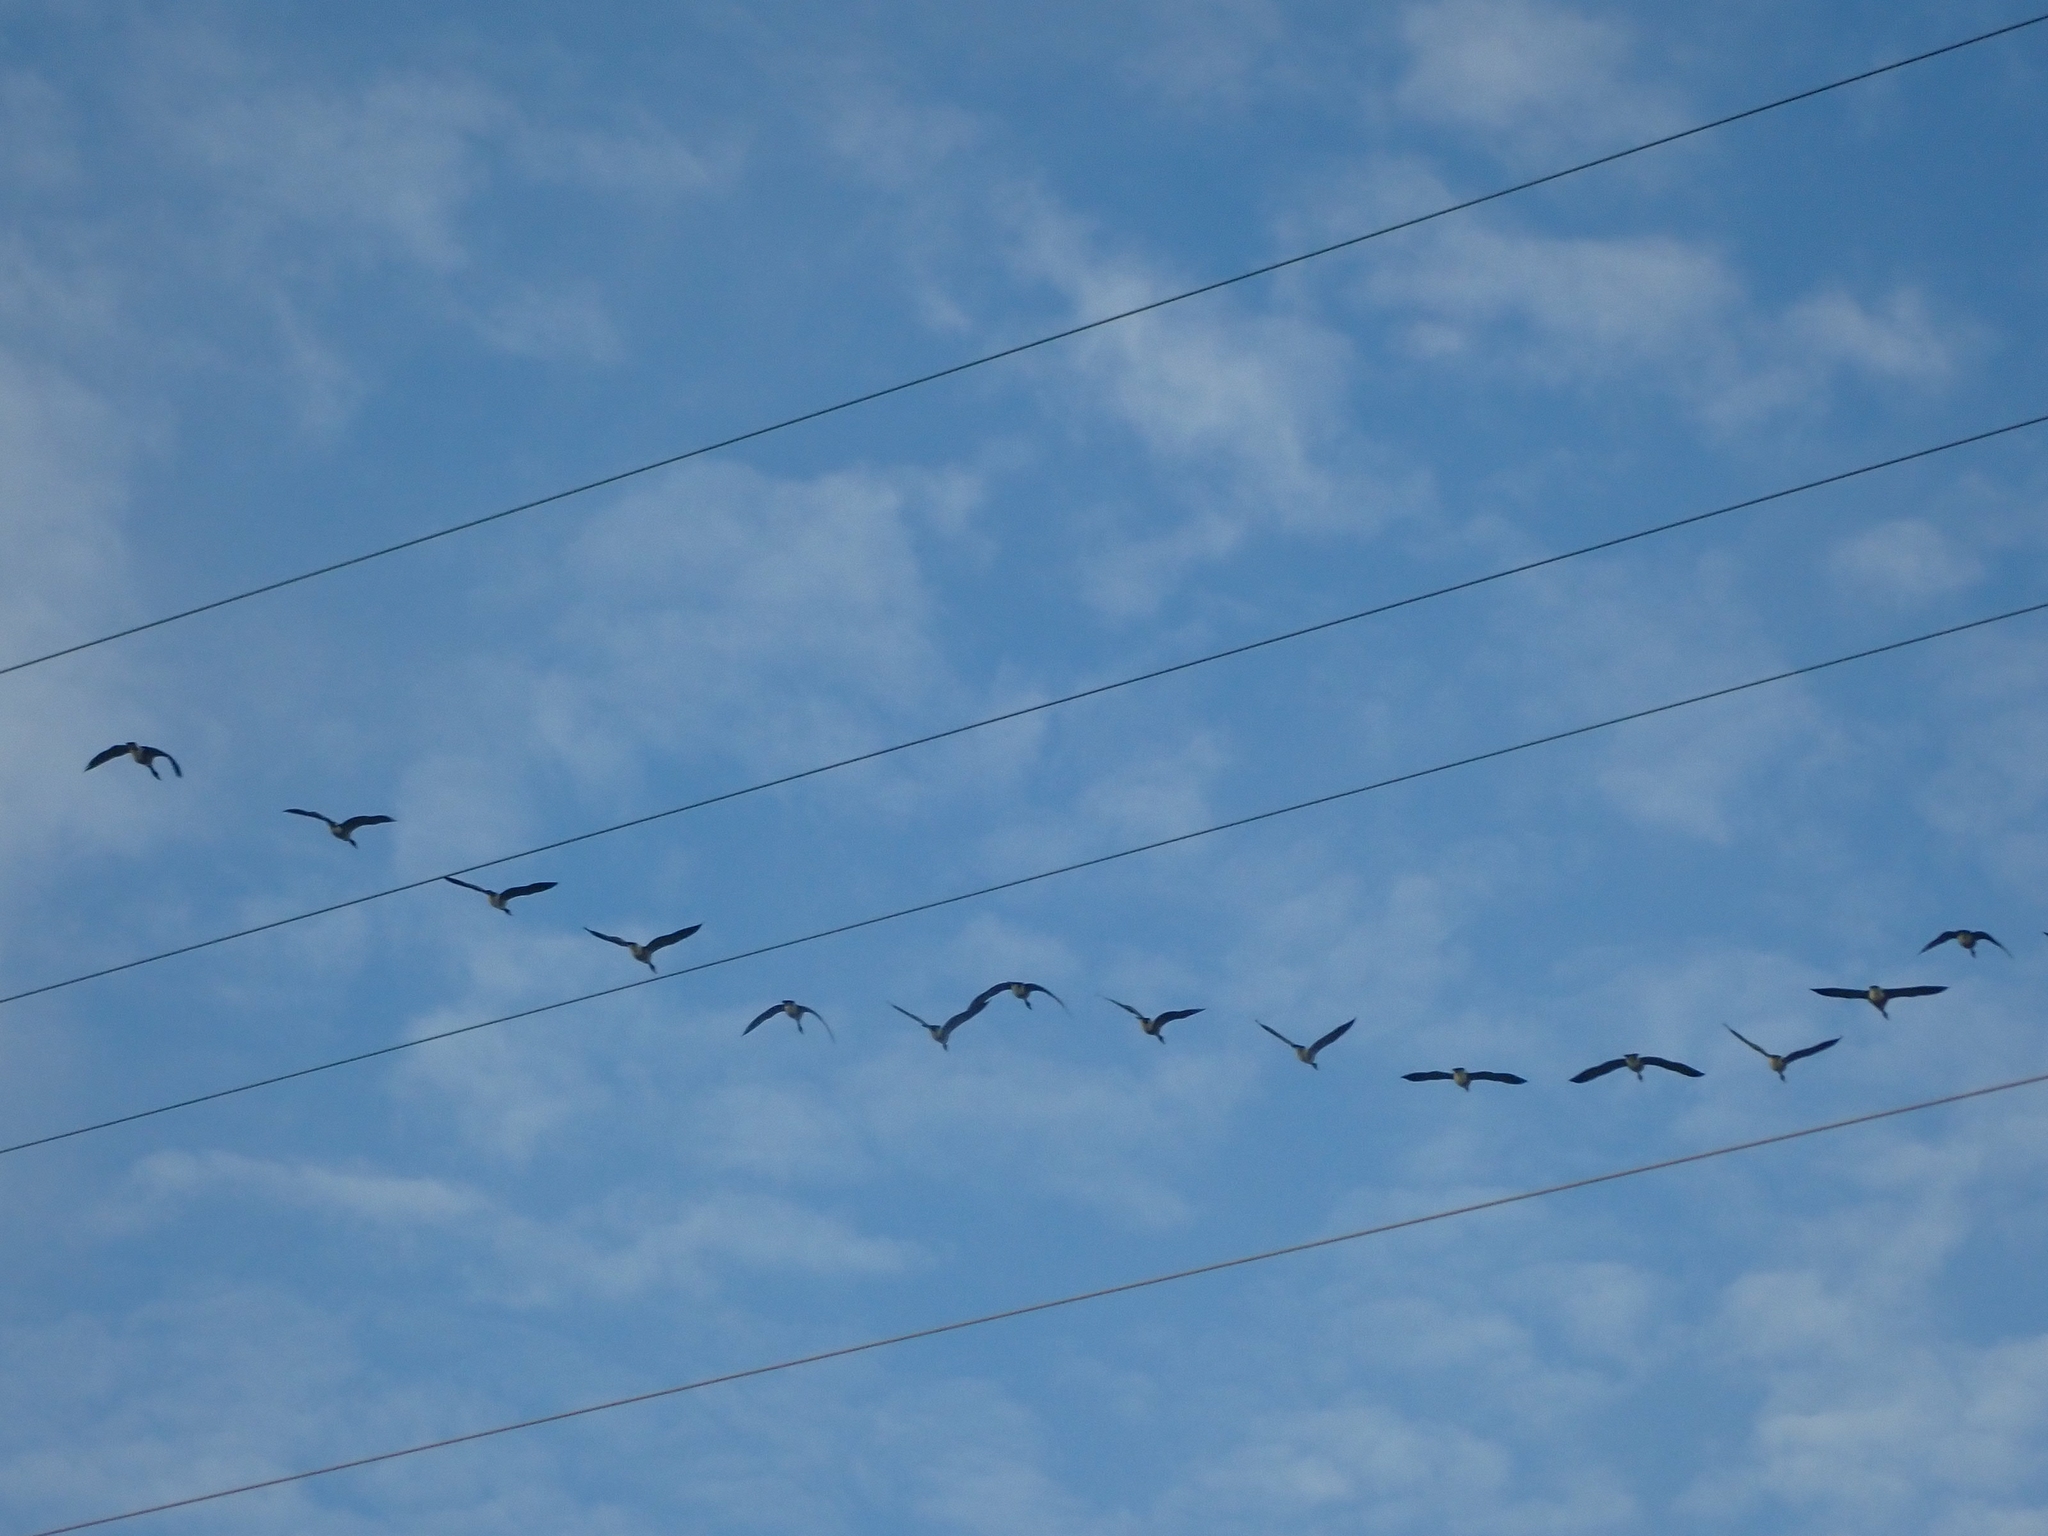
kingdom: Animalia
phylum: Chordata
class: Aves
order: Anseriformes
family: Anatidae
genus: Branta
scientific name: Branta canadensis
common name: Canada goose
